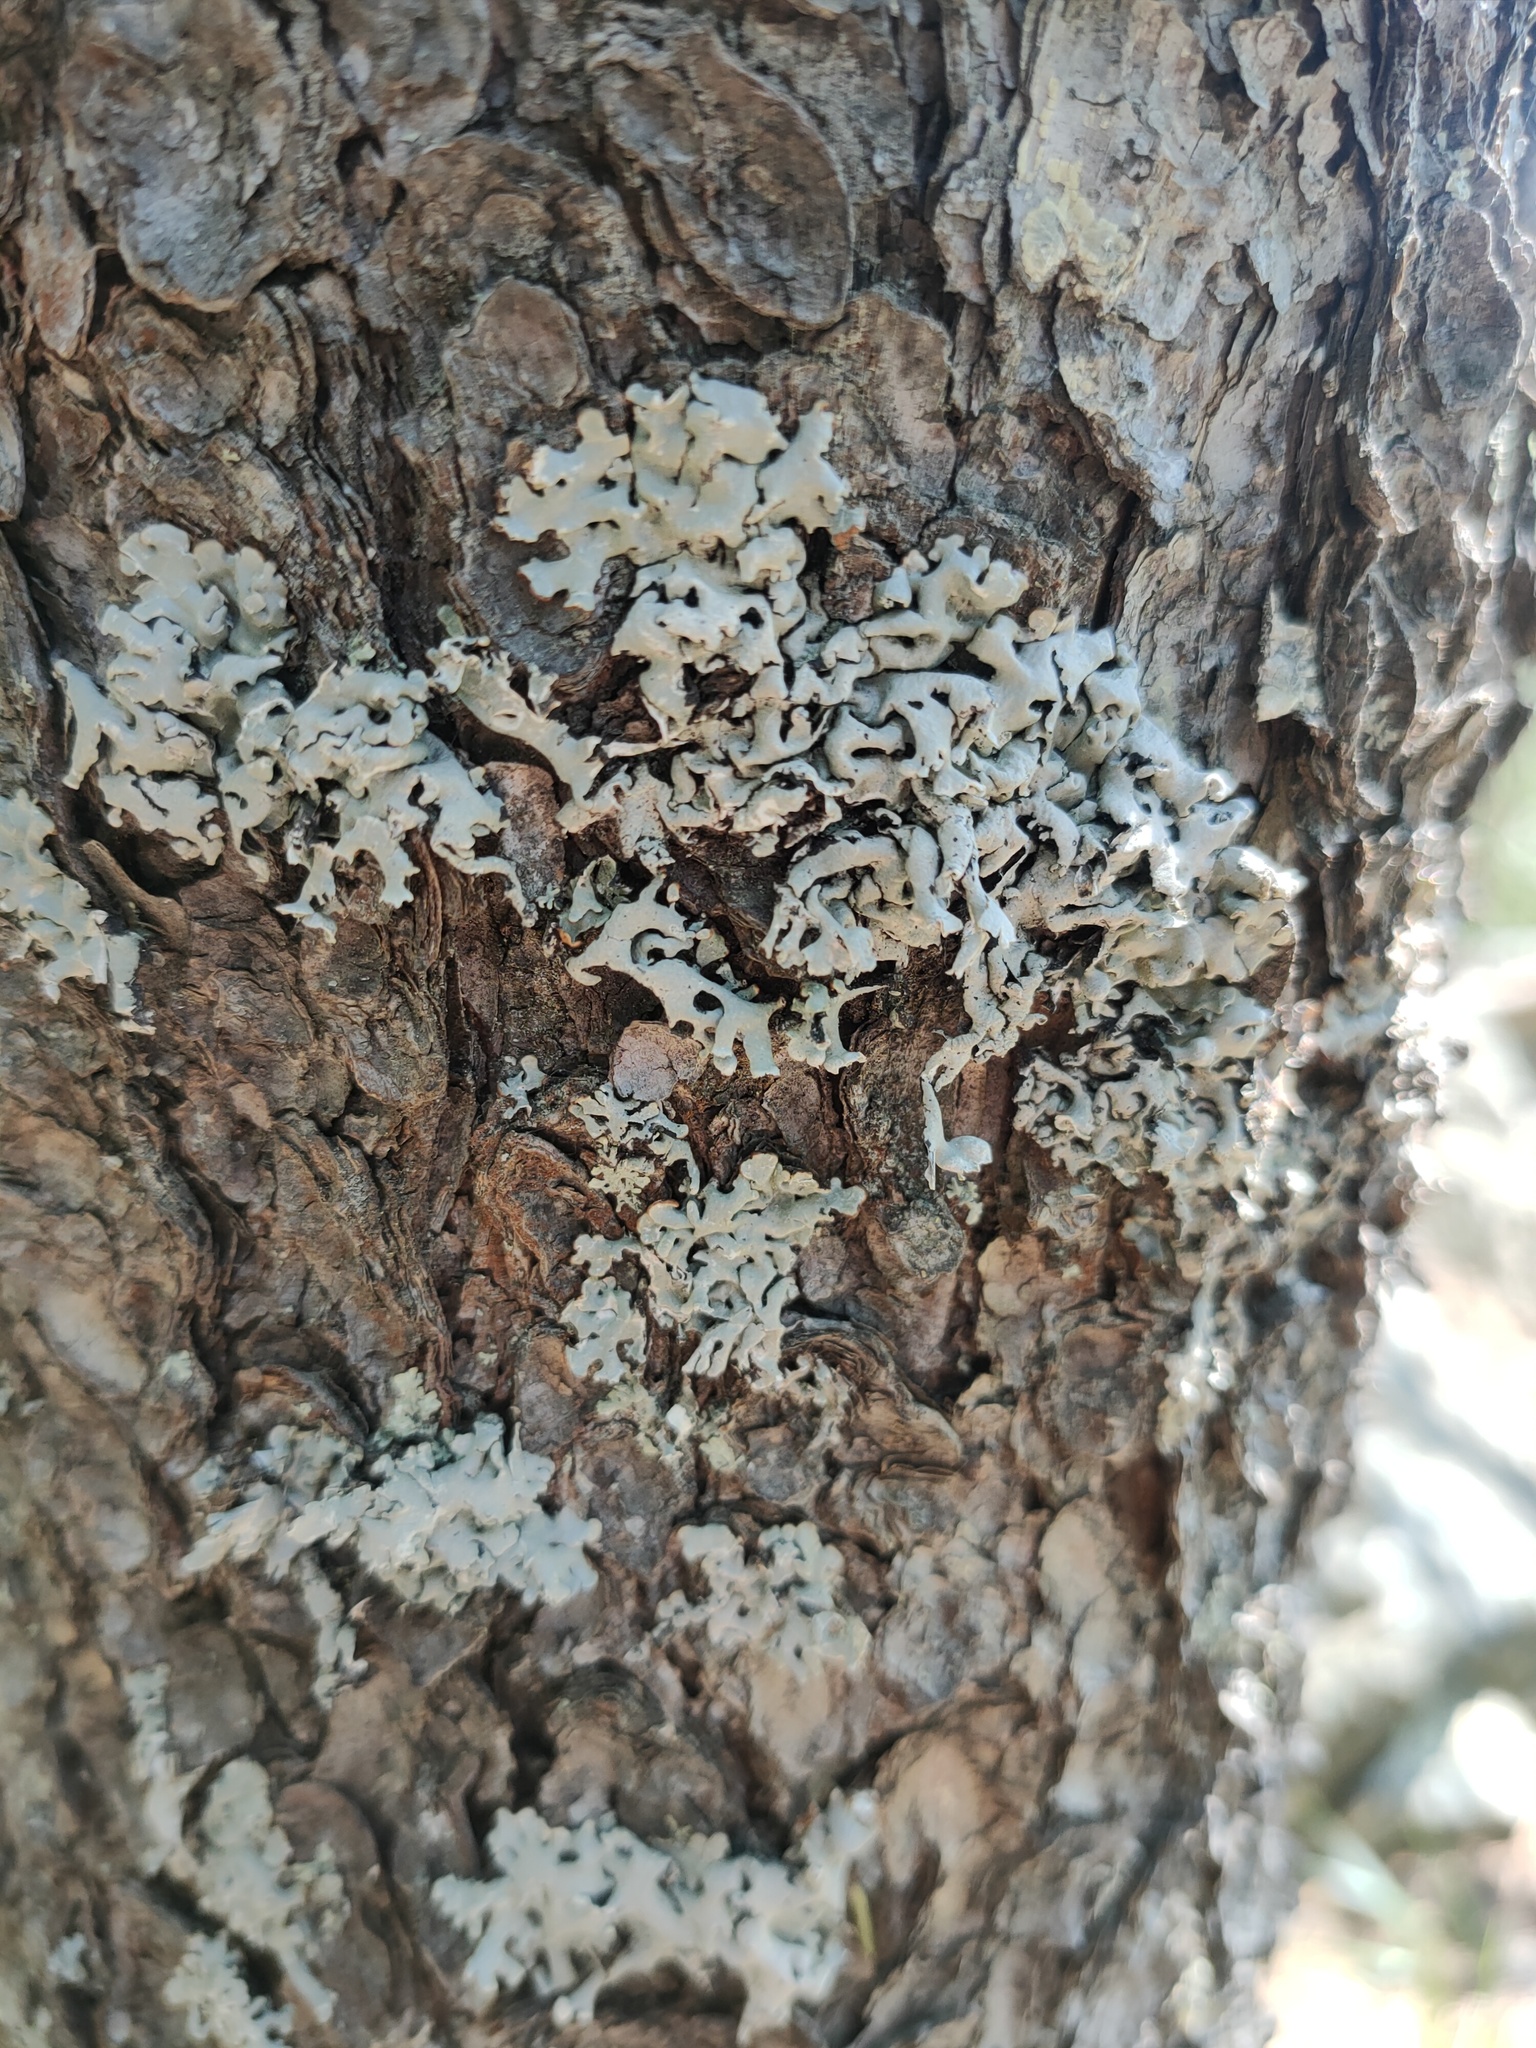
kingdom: Fungi
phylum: Ascomycota
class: Lecanoromycetes
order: Lecanorales
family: Parmeliaceae
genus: Hypogymnia
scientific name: Hypogymnia physodes
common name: Dark crottle
